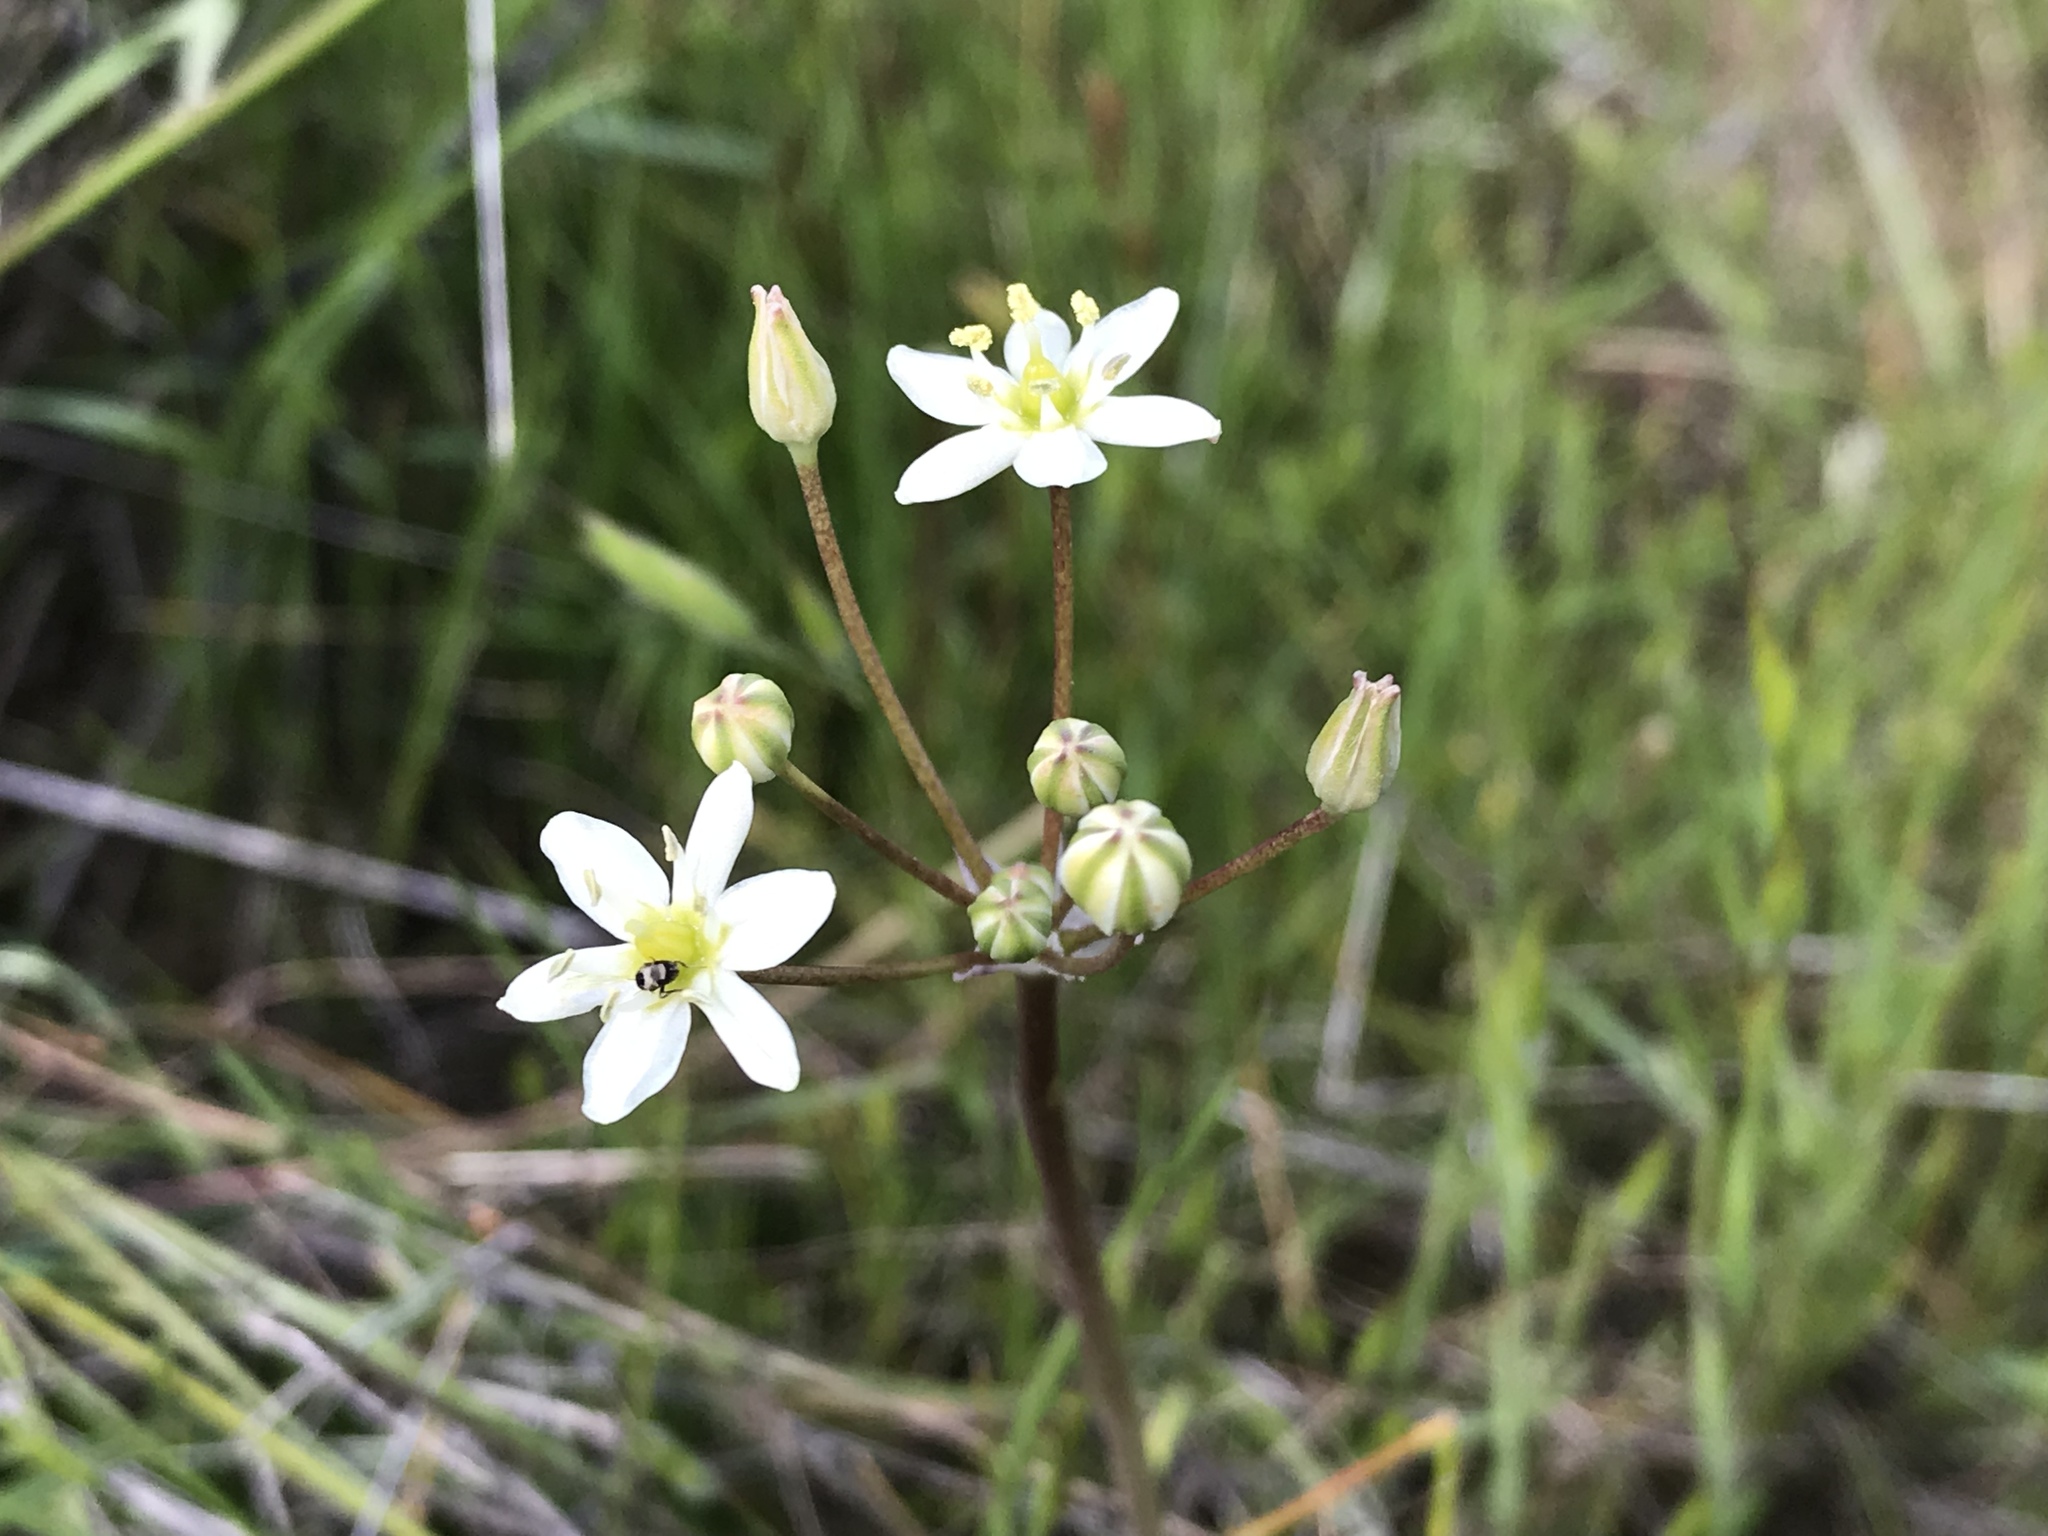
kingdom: Plantae
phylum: Tracheophyta
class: Liliopsida
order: Asparagales
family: Asparagaceae
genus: Muilla
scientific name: Muilla maritima
